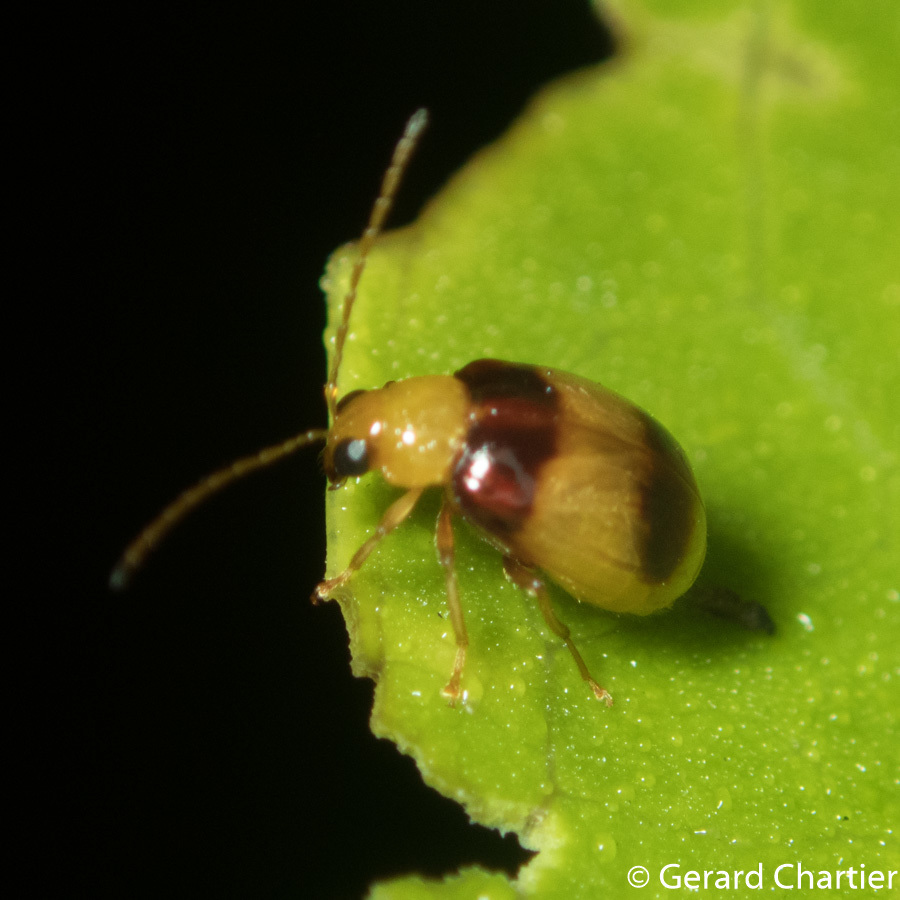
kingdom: Animalia
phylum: Arthropoda
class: Insecta
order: Coleoptera
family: Chrysomelidae
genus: Monolepta
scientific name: Monolepta
